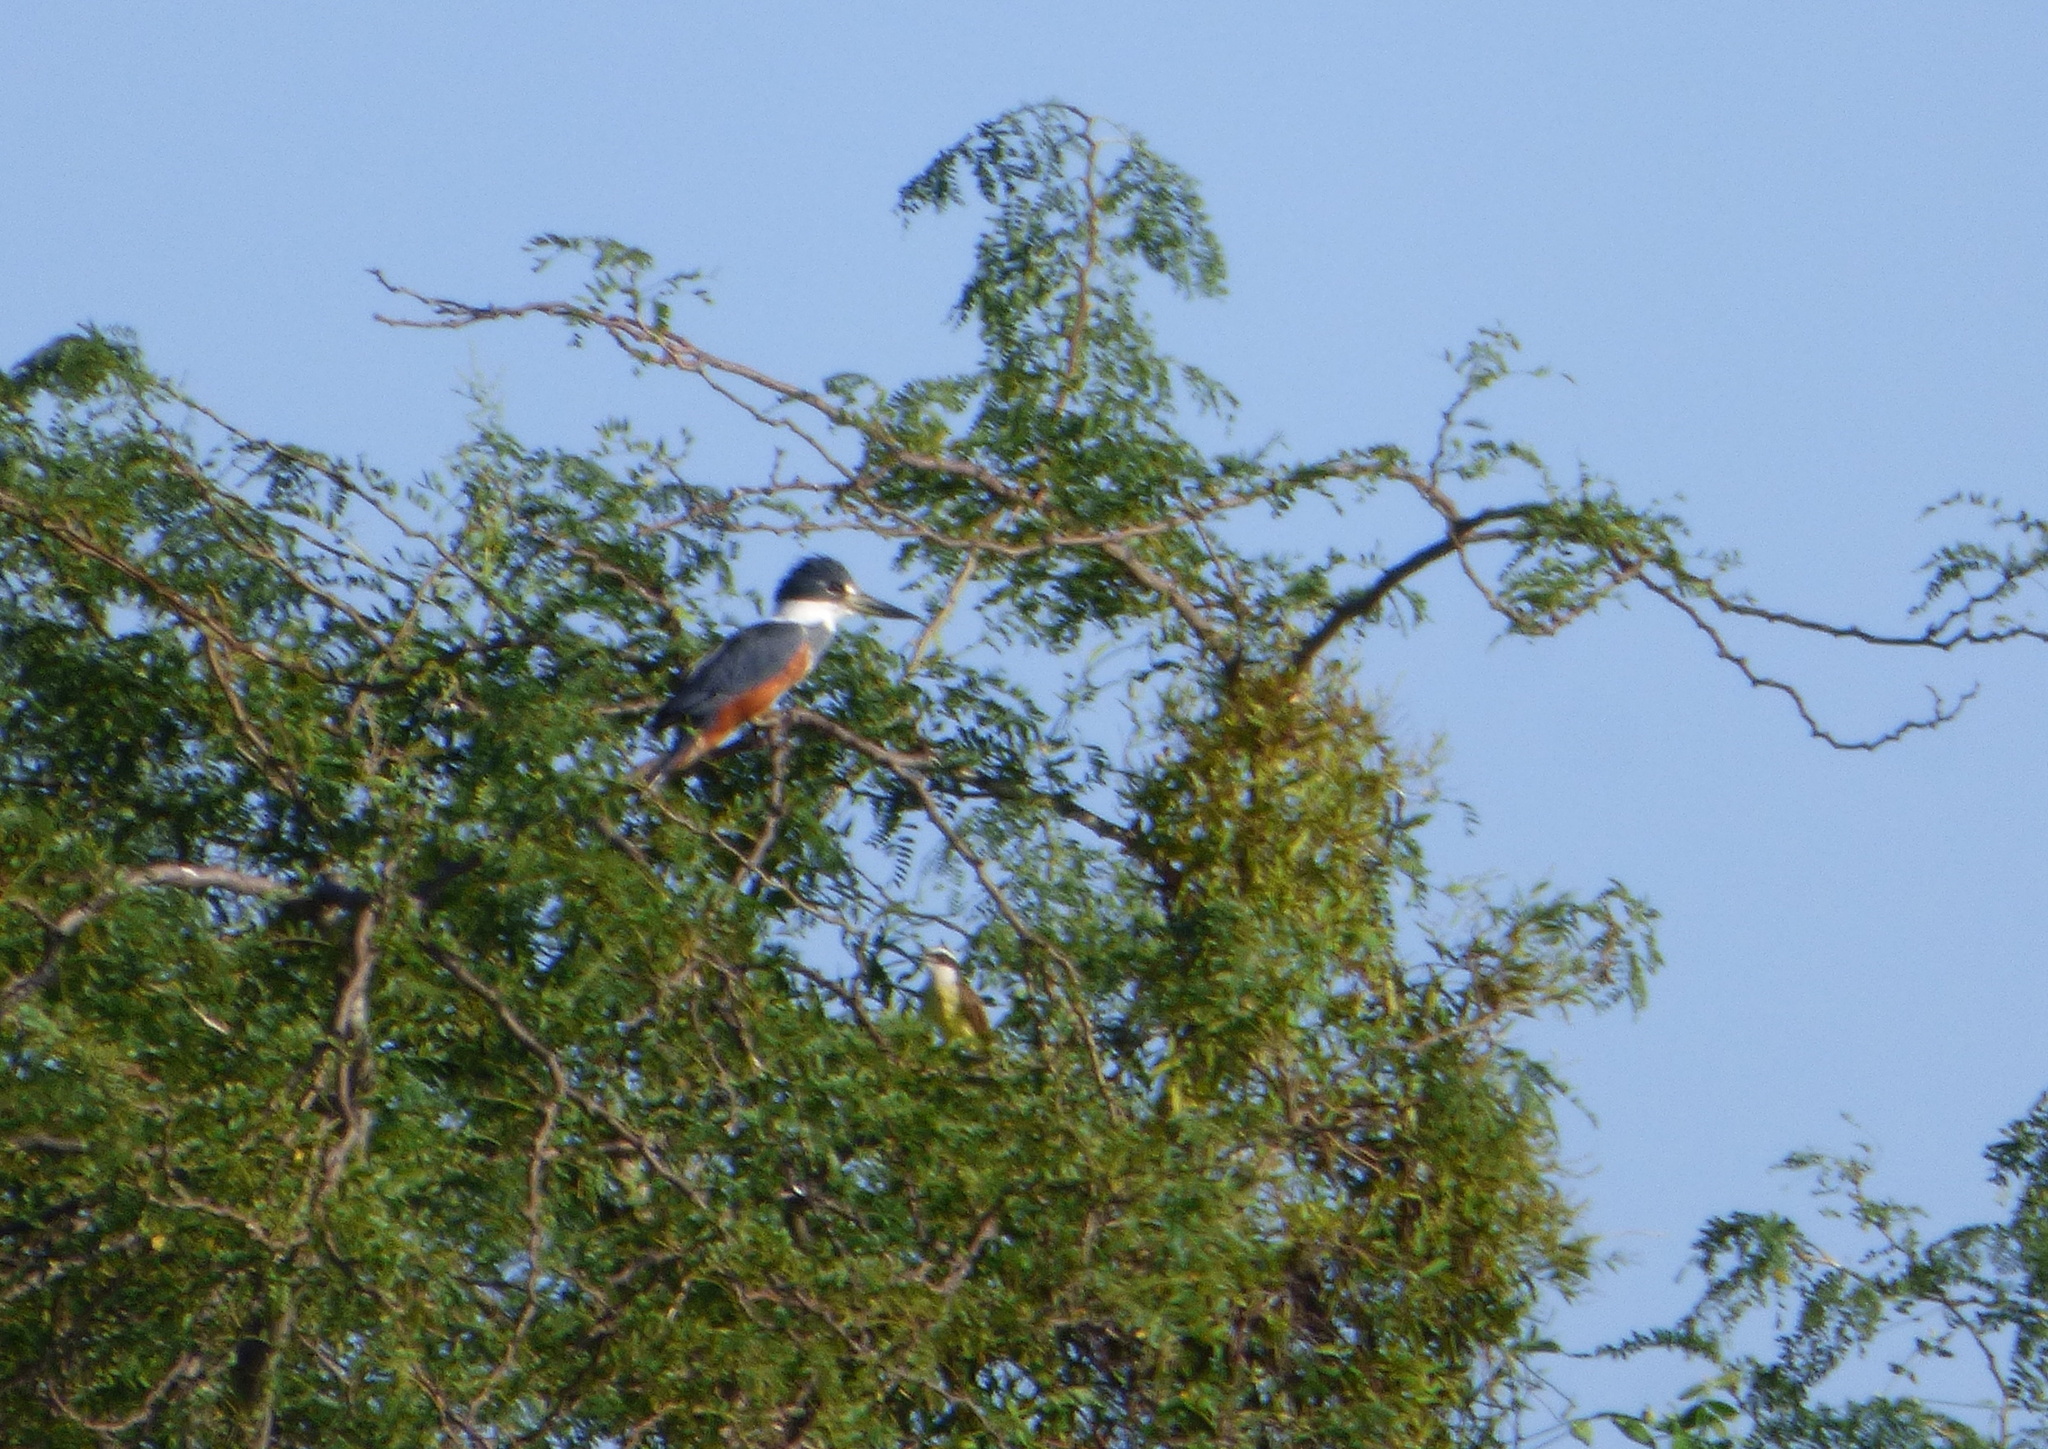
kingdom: Animalia
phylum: Chordata
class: Aves
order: Coraciiformes
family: Alcedinidae
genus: Megaceryle
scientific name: Megaceryle torquata
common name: Ringed kingfisher
